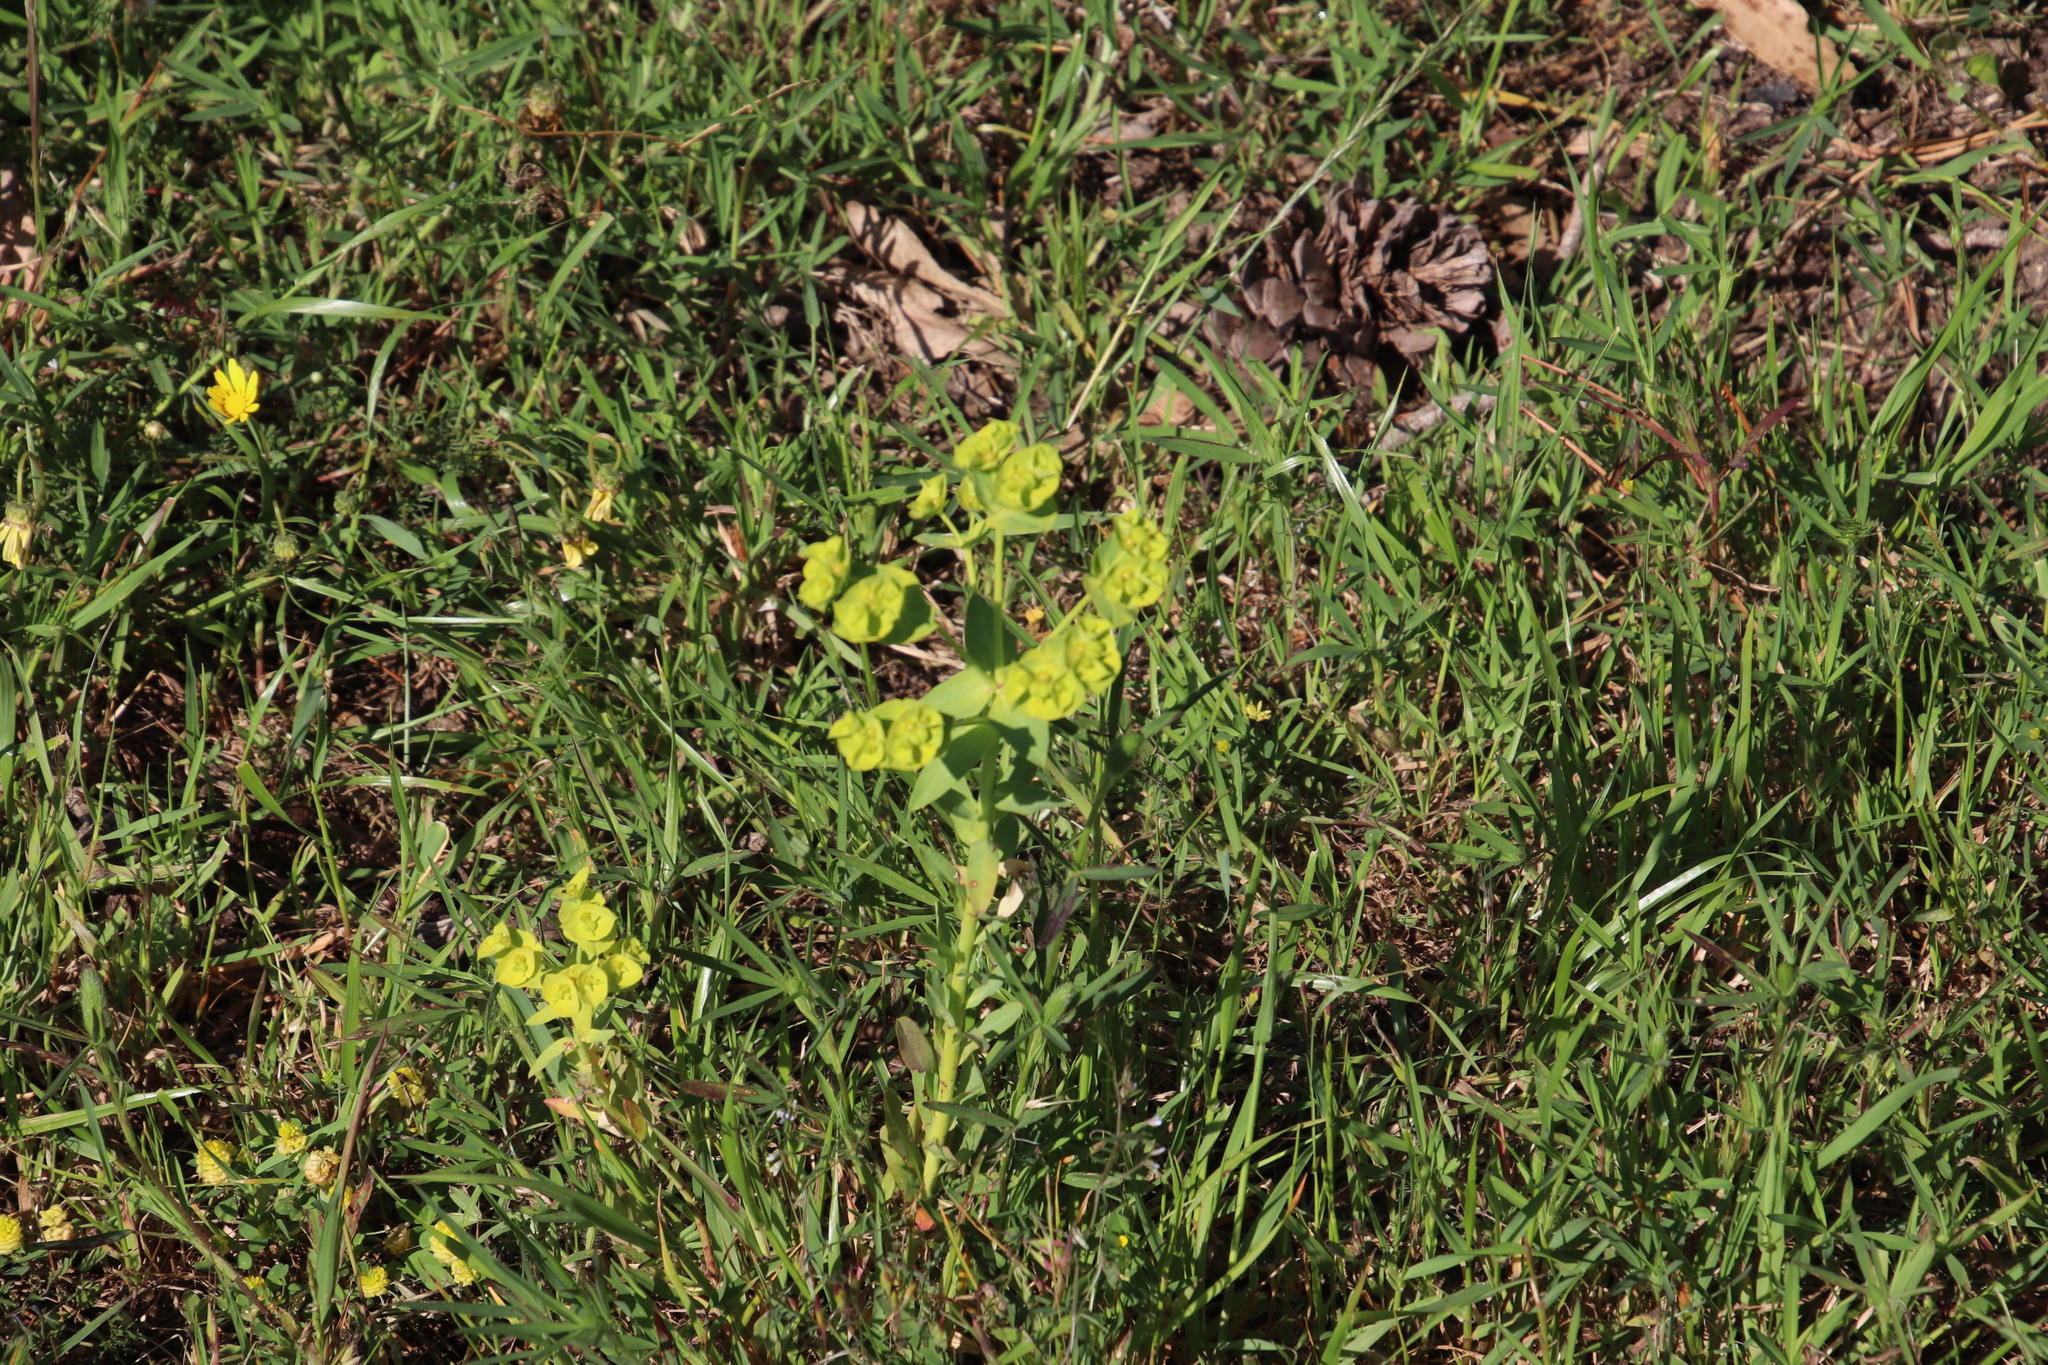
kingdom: Plantae
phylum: Tracheophyta
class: Magnoliopsida
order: Malpighiales
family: Euphorbiaceae
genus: Euphorbia
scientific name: Euphorbia terracina
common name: Geraldton carnation weed
